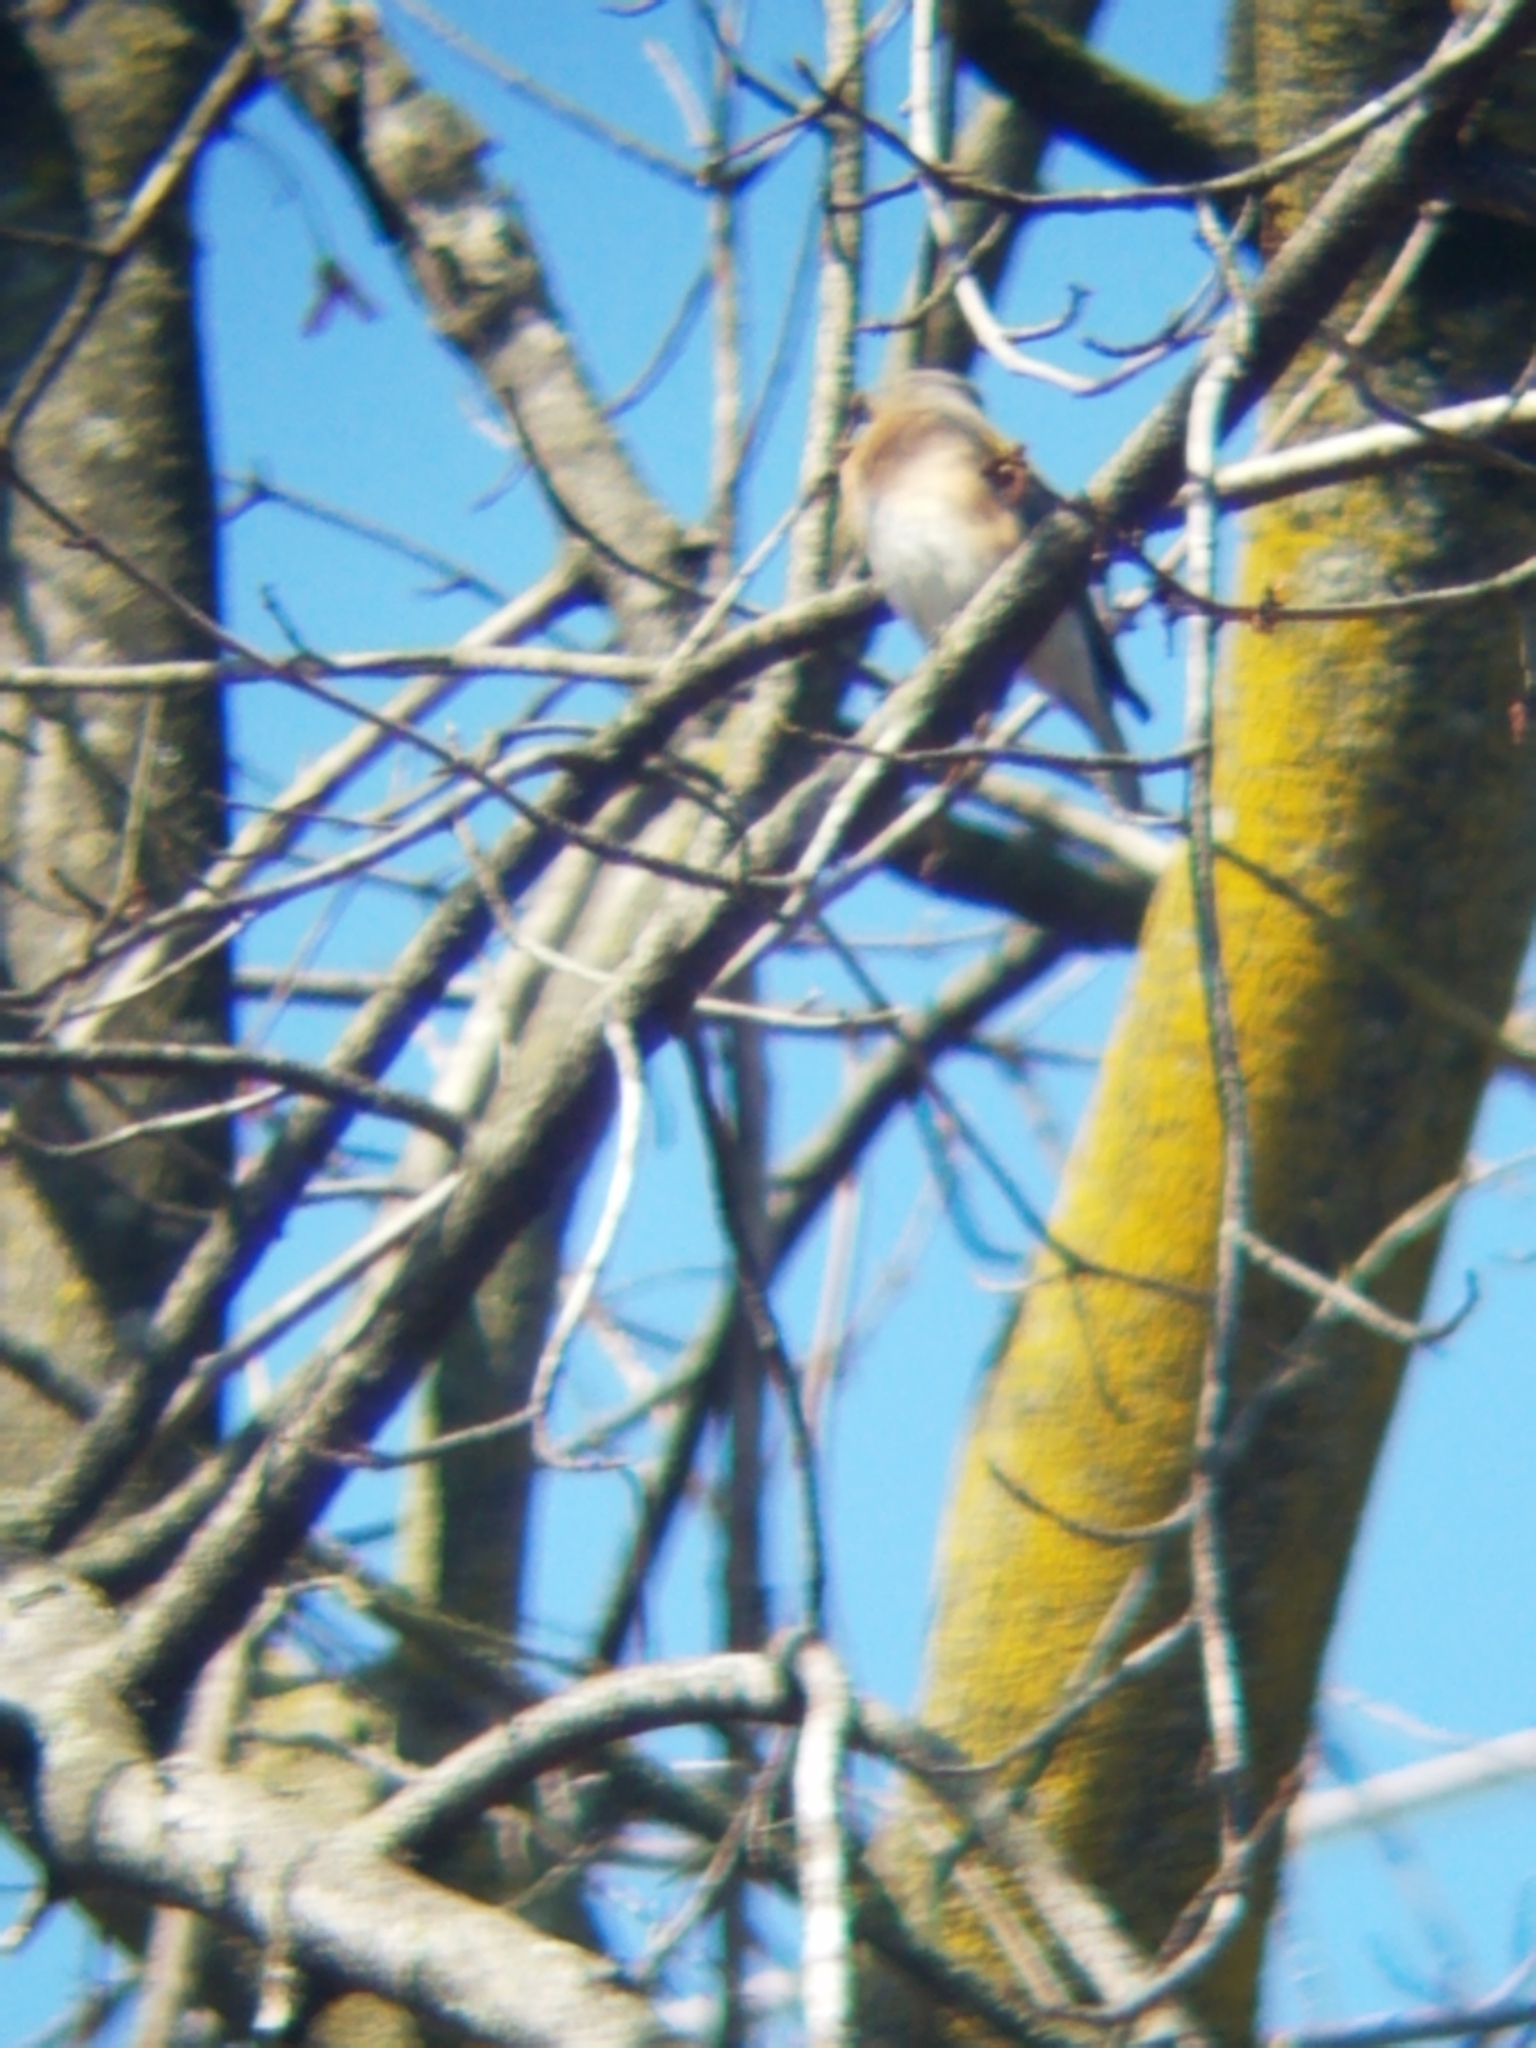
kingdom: Animalia
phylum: Chordata
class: Aves
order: Passeriformes
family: Turdidae
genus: Sialia
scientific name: Sialia sialis
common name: Eastern bluebird
